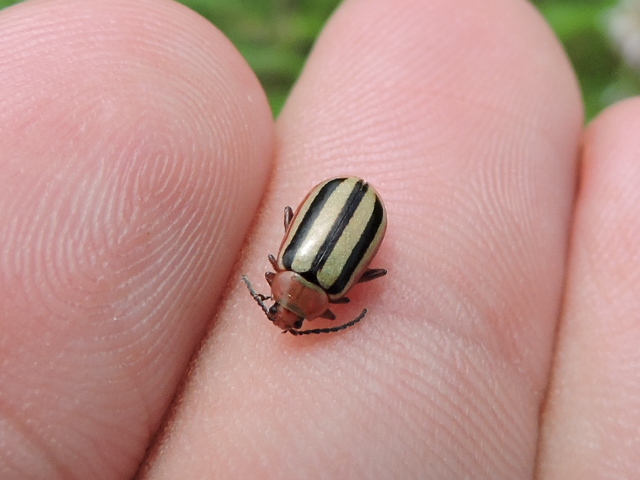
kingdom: Animalia
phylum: Arthropoda
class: Insecta
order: Coleoptera
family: Chrysomelidae
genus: Disonycha
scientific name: Disonycha leptolineata
